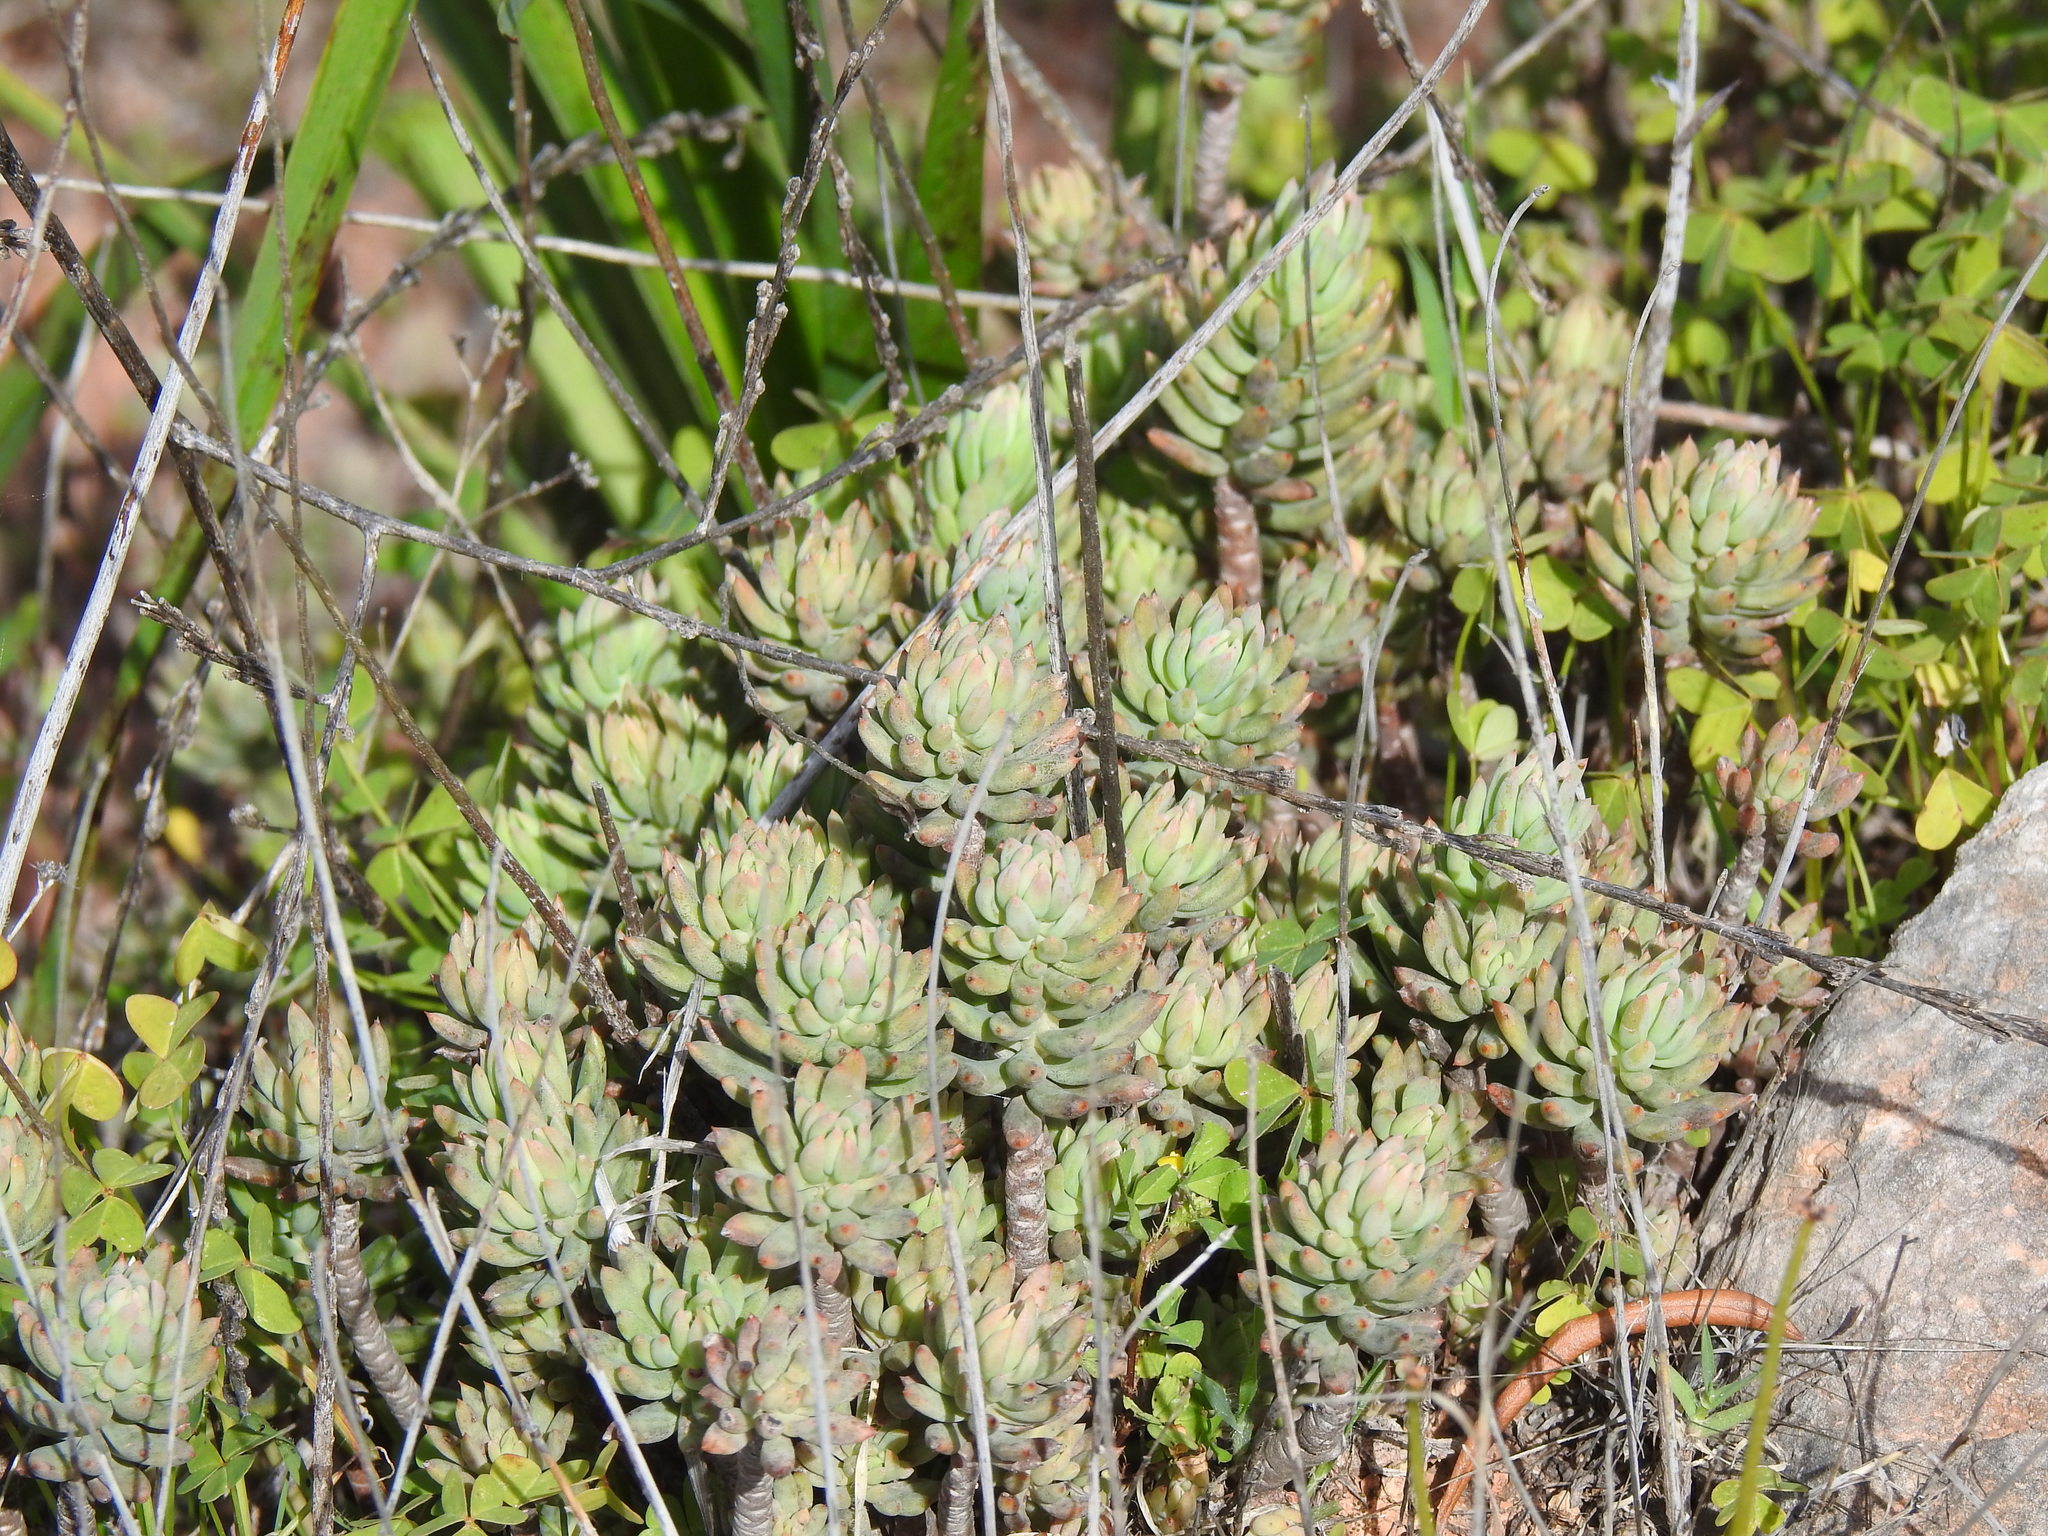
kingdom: Plantae
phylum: Tracheophyta
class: Magnoliopsida
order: Saxifragales
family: Crassulaceae
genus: Petrosedum
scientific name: Petrosedum sediforme
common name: Pale stonecrop
